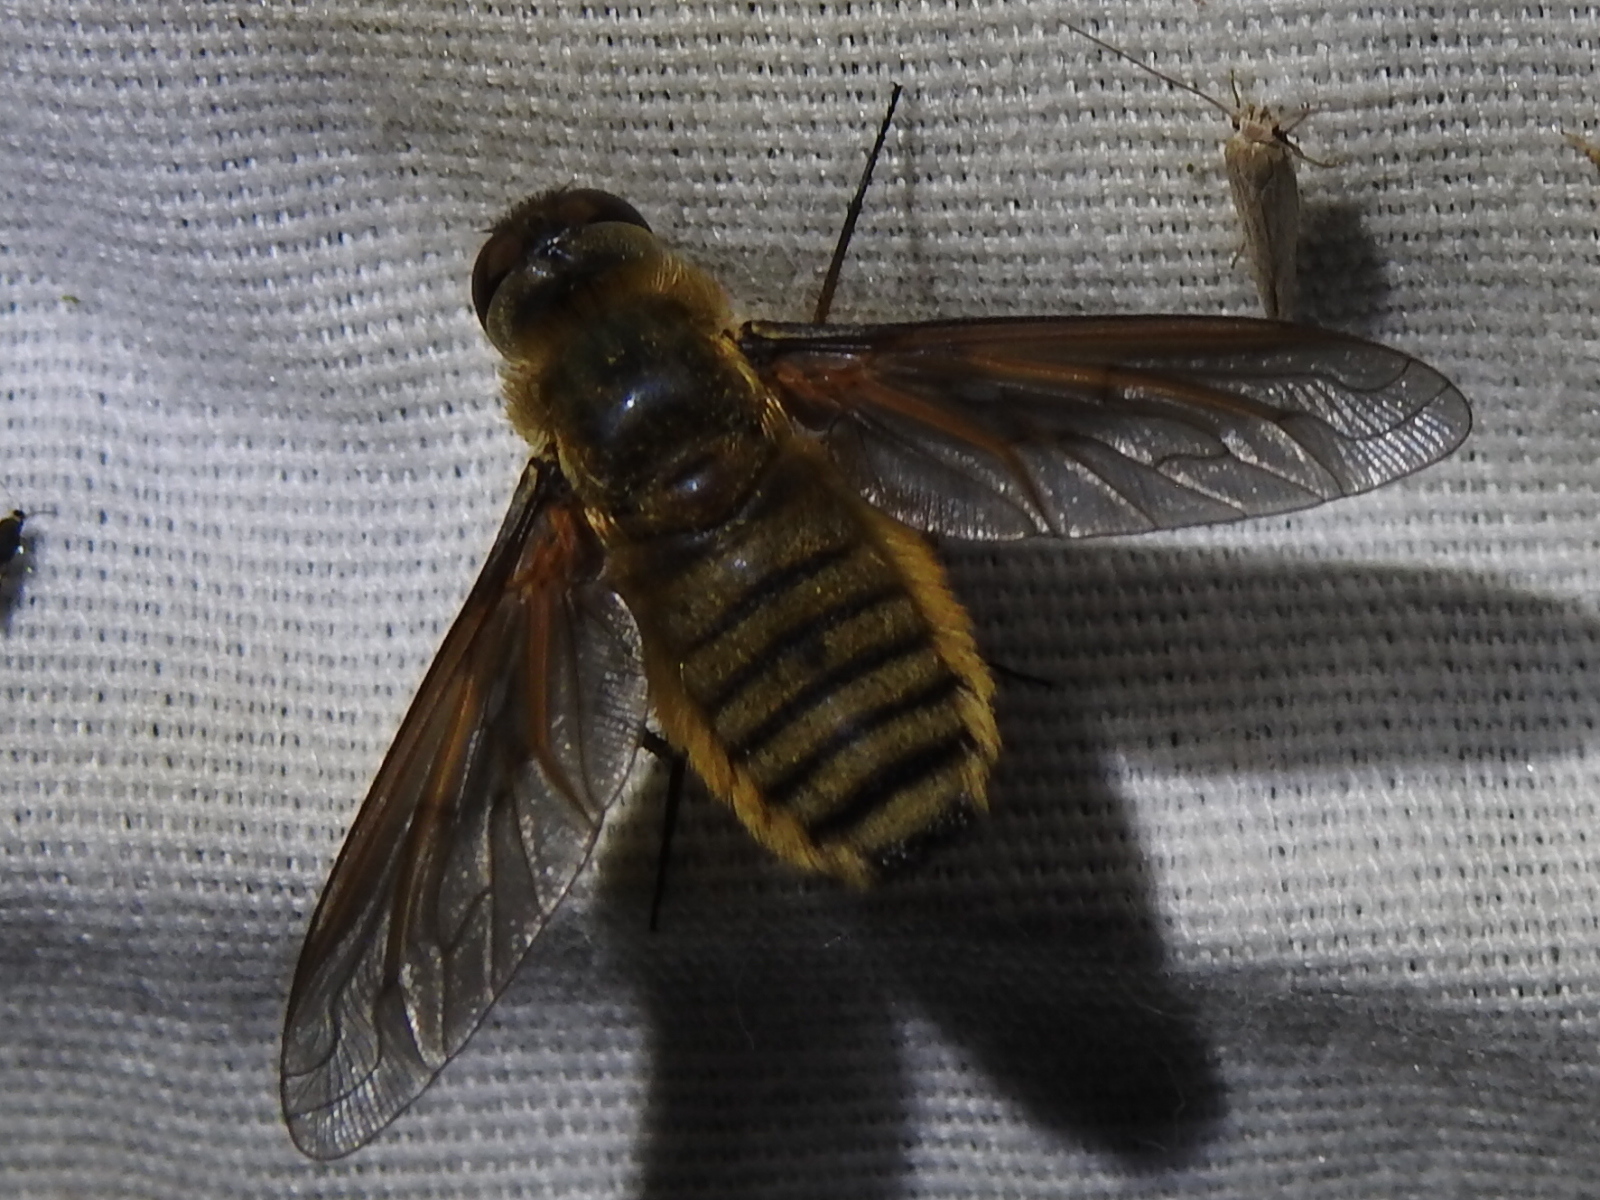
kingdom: Animalia
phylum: Arthropoda
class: Insecta
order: Diptera
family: Bombyliidae
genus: Poecilanthrax
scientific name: Poecilanthrax lucifer
